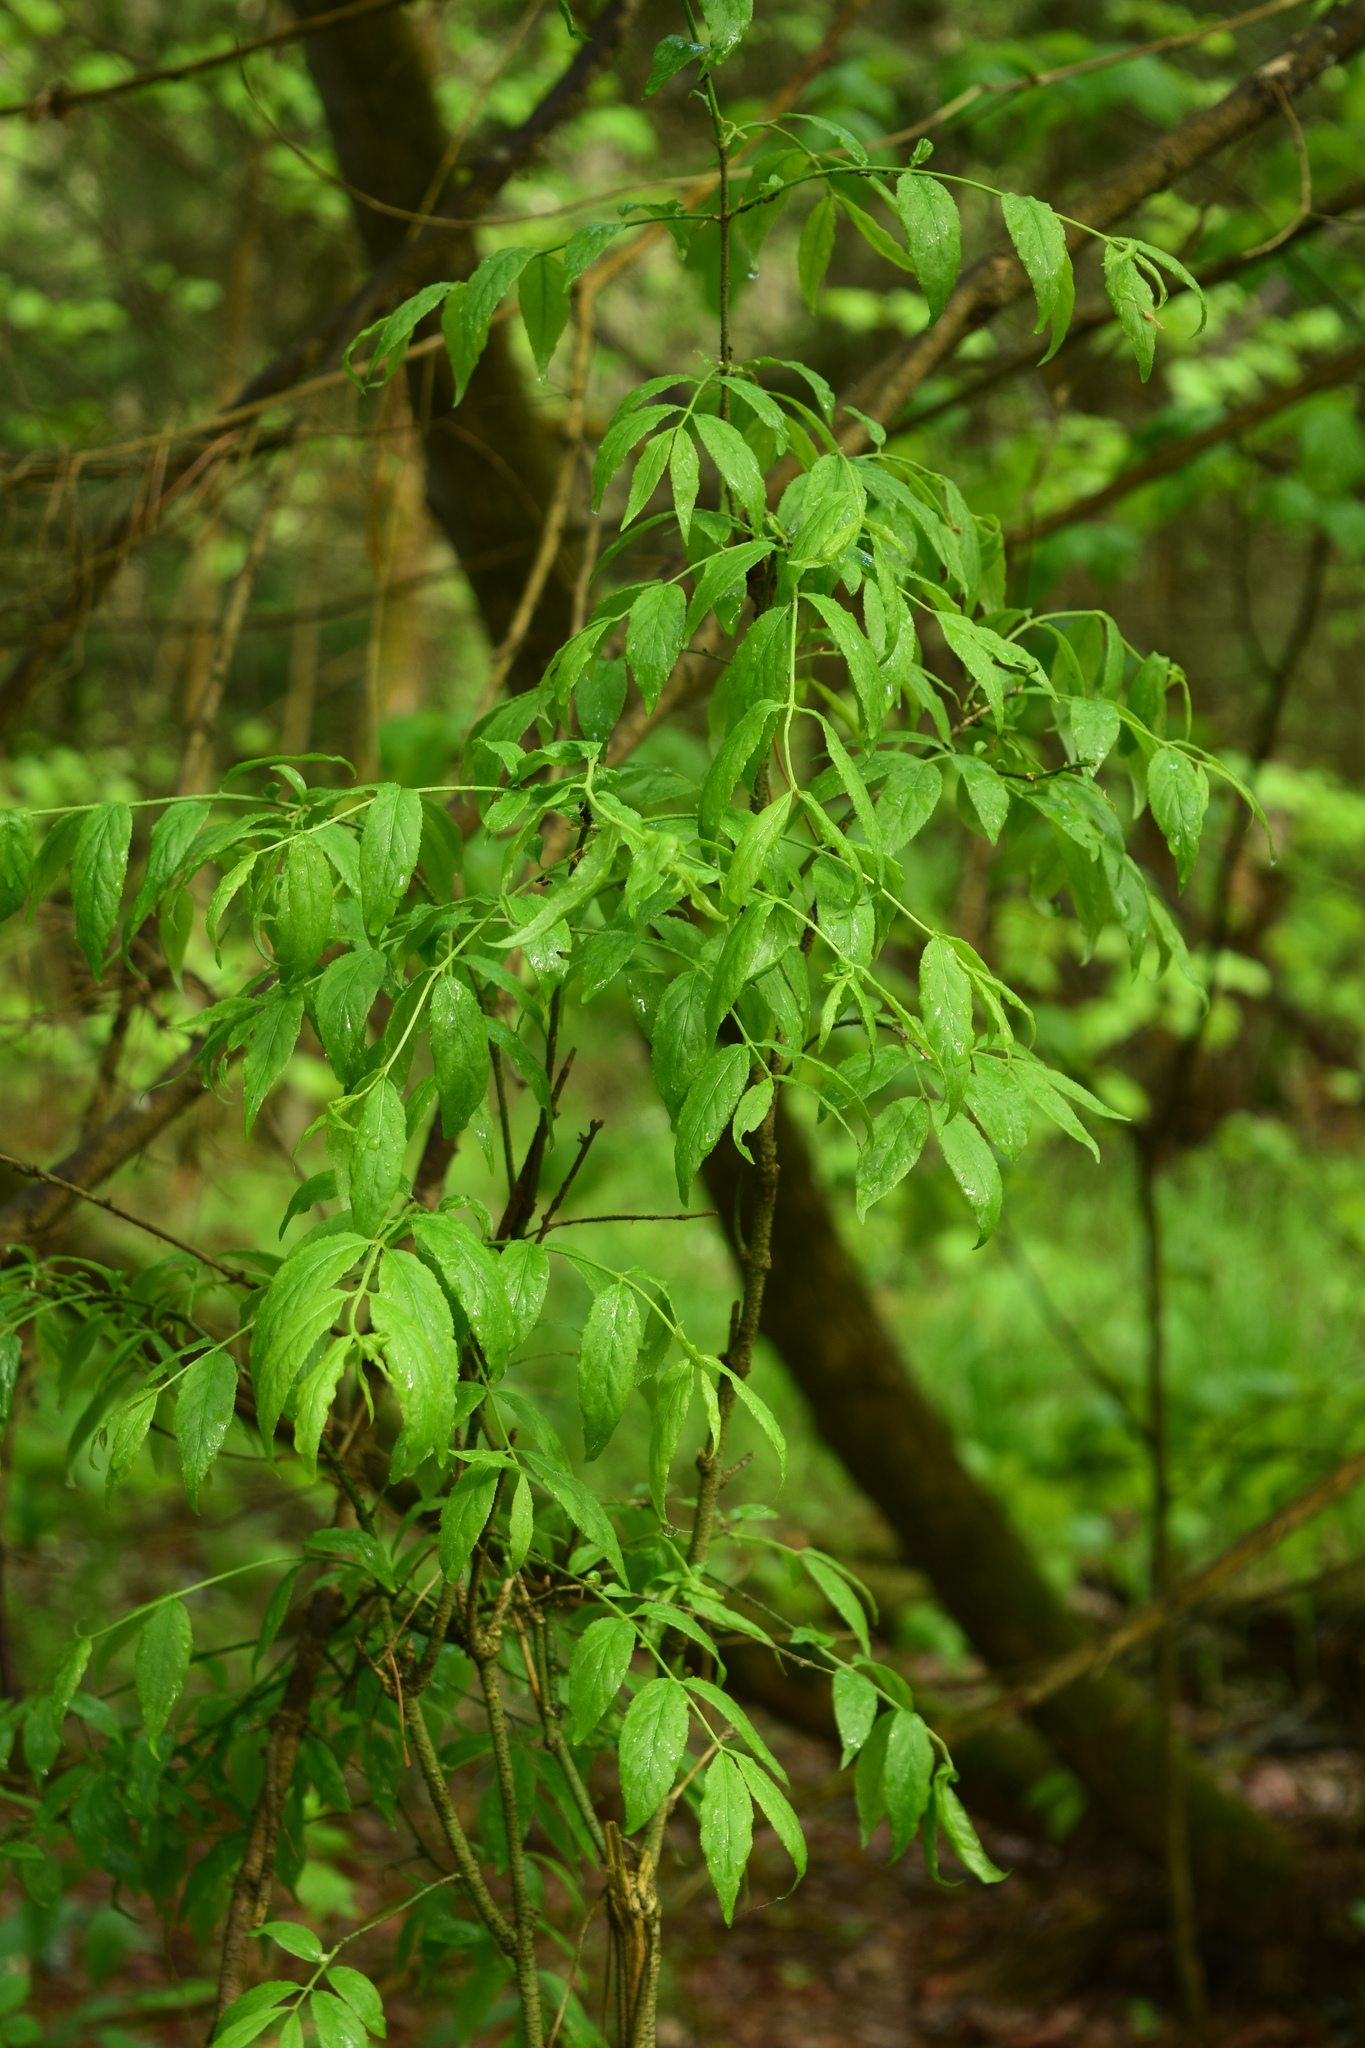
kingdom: Plantae
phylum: Tracheophyta
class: Magnoliopsida
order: Celastrales
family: Celastraceae
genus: Euonymus
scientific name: Euonymus verrucosus
